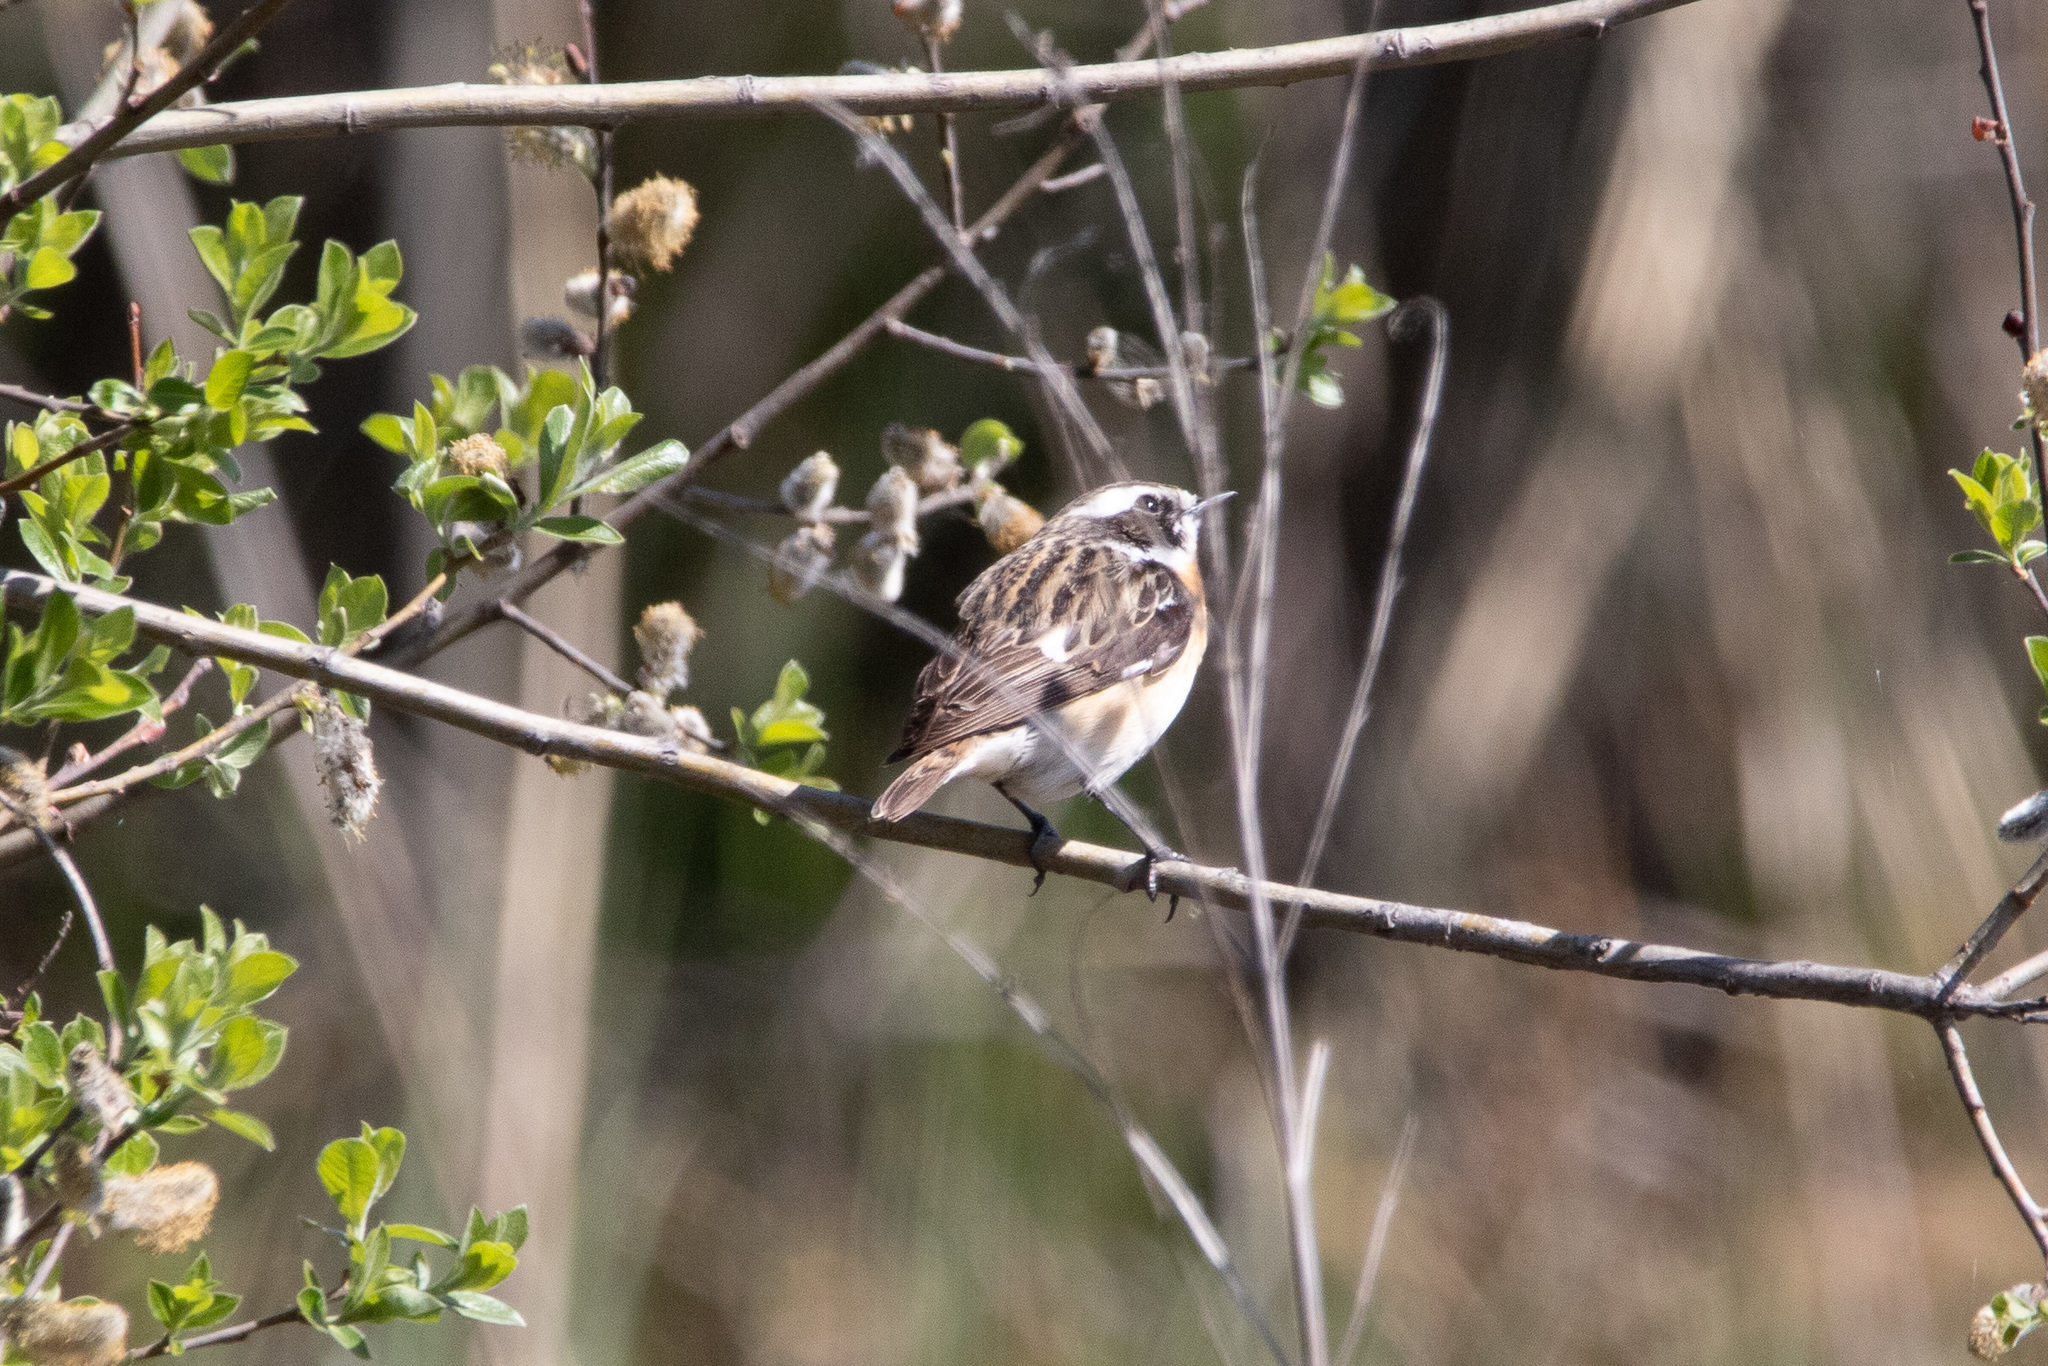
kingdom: Animalia
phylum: Chordata
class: Aves
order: Passeriformes
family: Muscicapidae
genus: Saxicola
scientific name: Saxicola rubetra
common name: Whinchat
